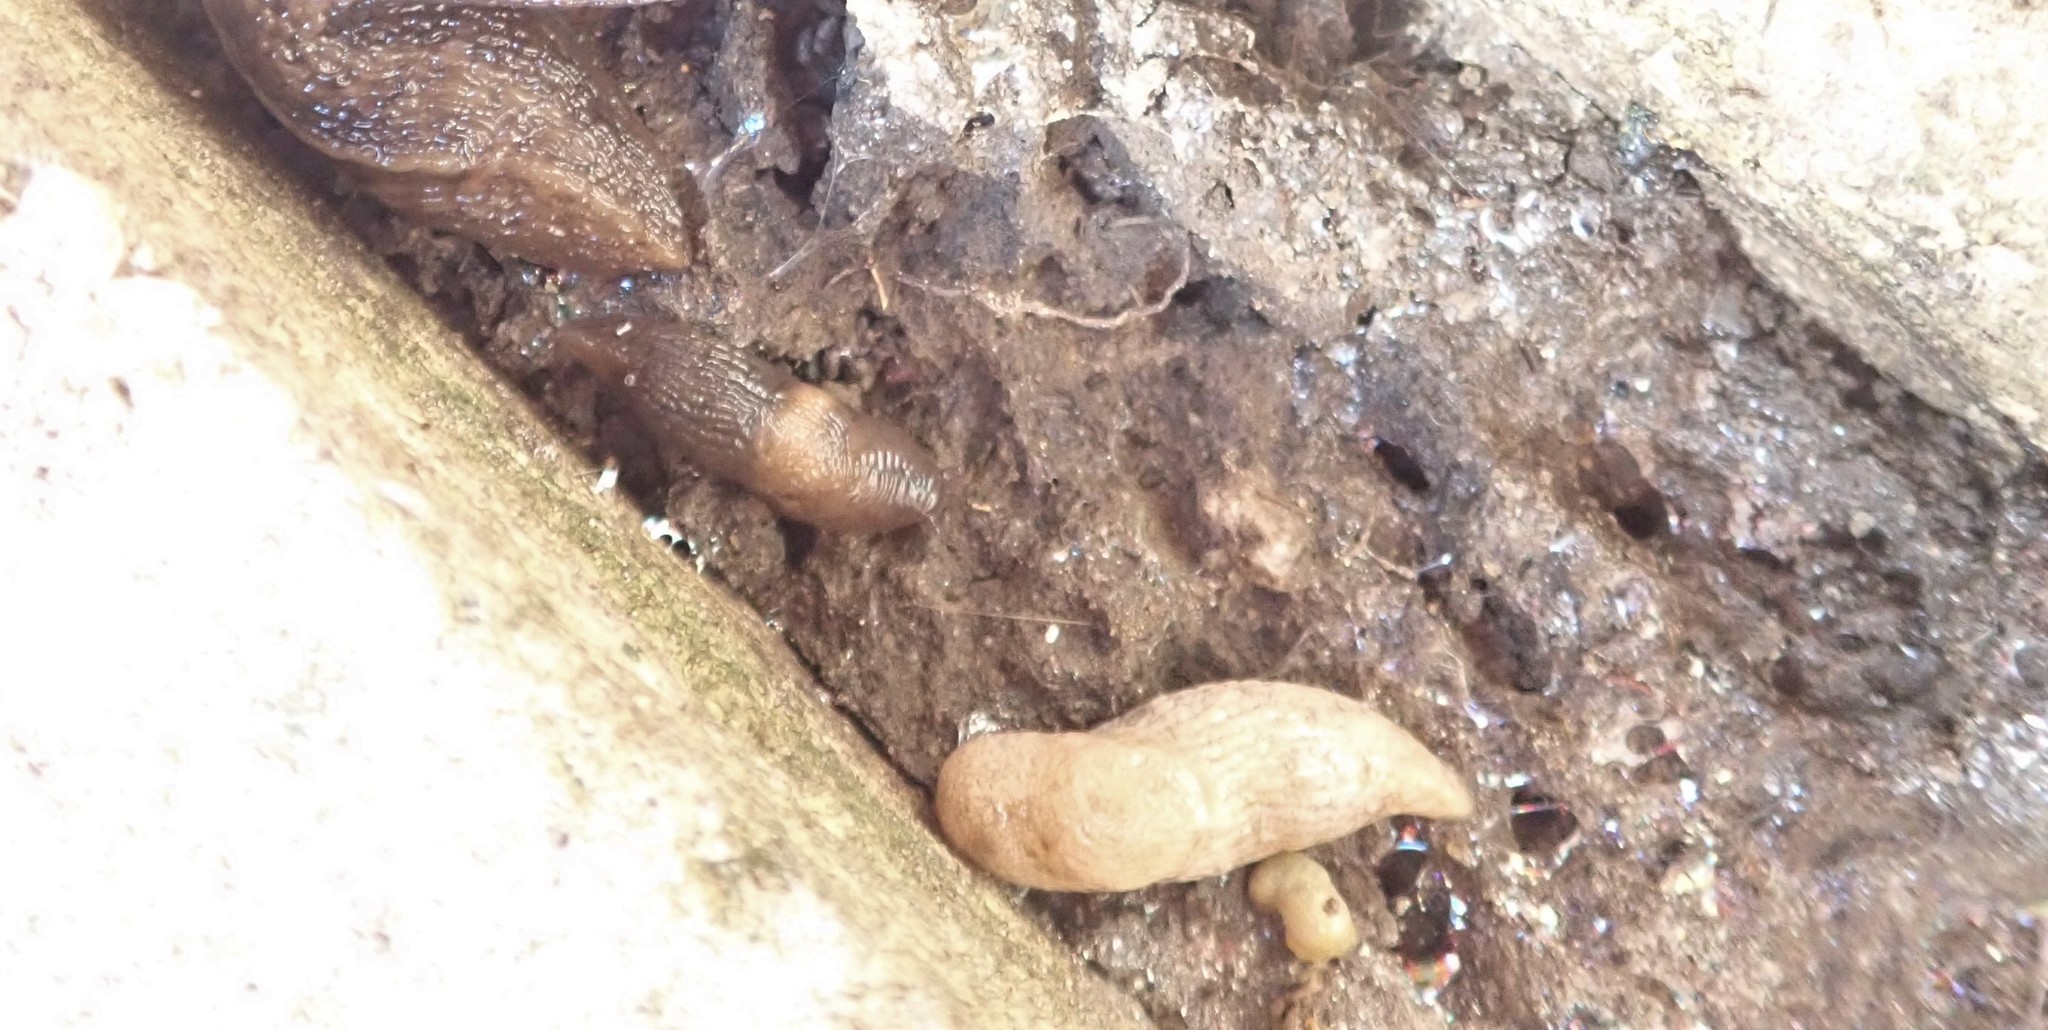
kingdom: Animalia
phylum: Mollusca
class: Gastropoda
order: Stylommatophora
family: Agriolimacidae
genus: Deroceras
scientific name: Deroceras reticulatum
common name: Gray field slug
